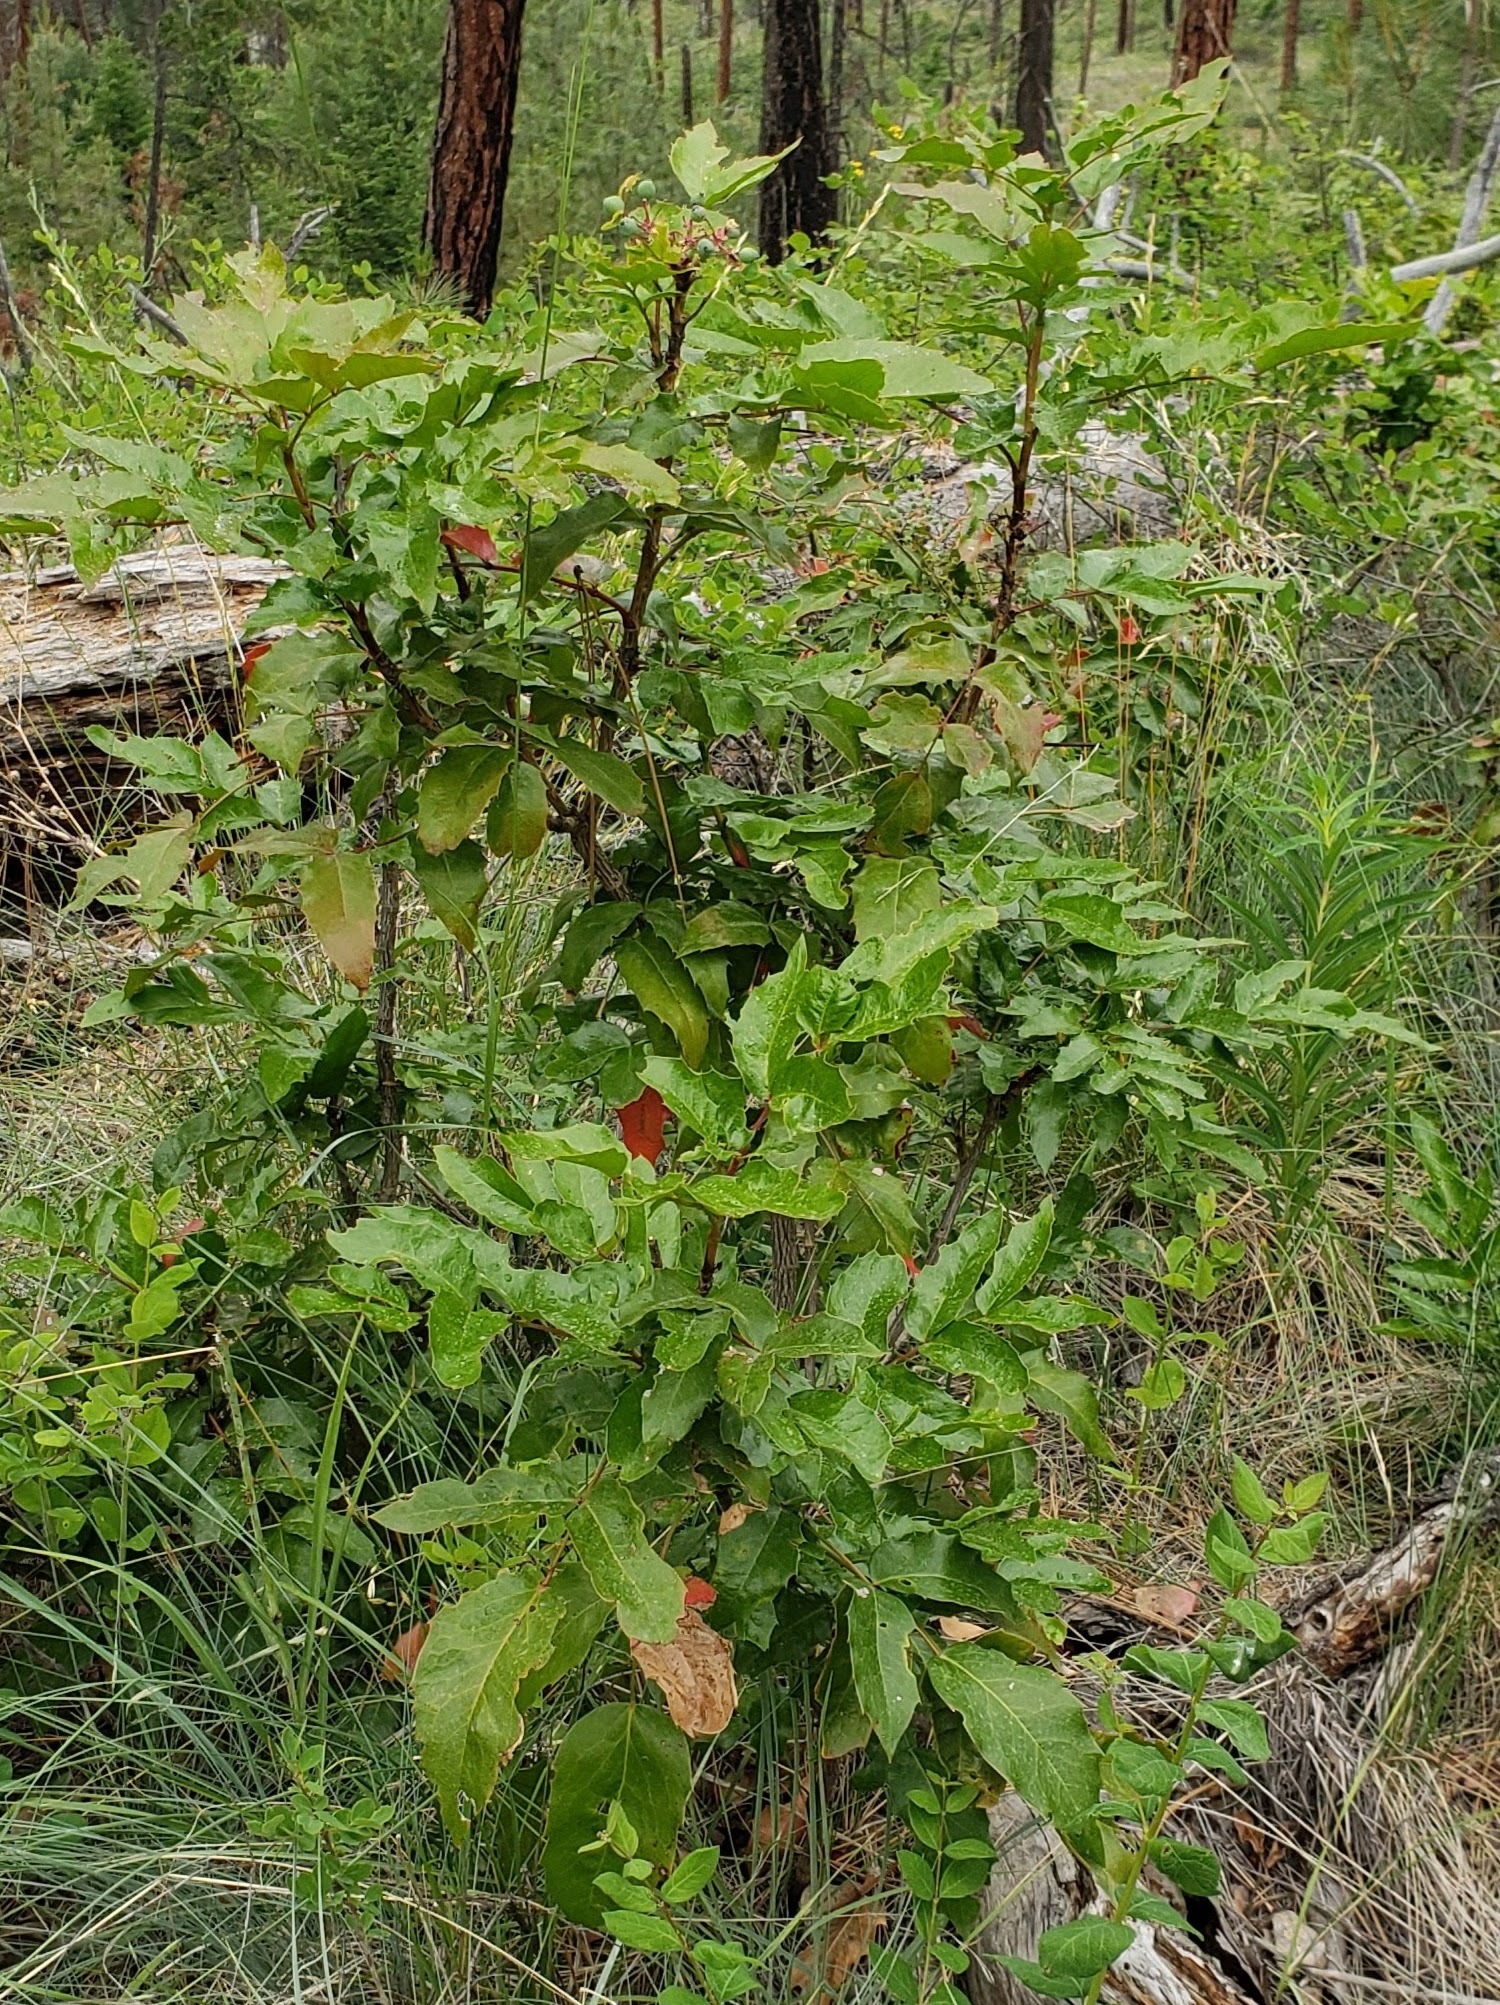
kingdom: Plantae
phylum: Tracheophyta
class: Magnoliopsida
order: Ranunculales
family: Berberidaceae
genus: Mahonia
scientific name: Mahonia aquifolium
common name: Oregon-grape
